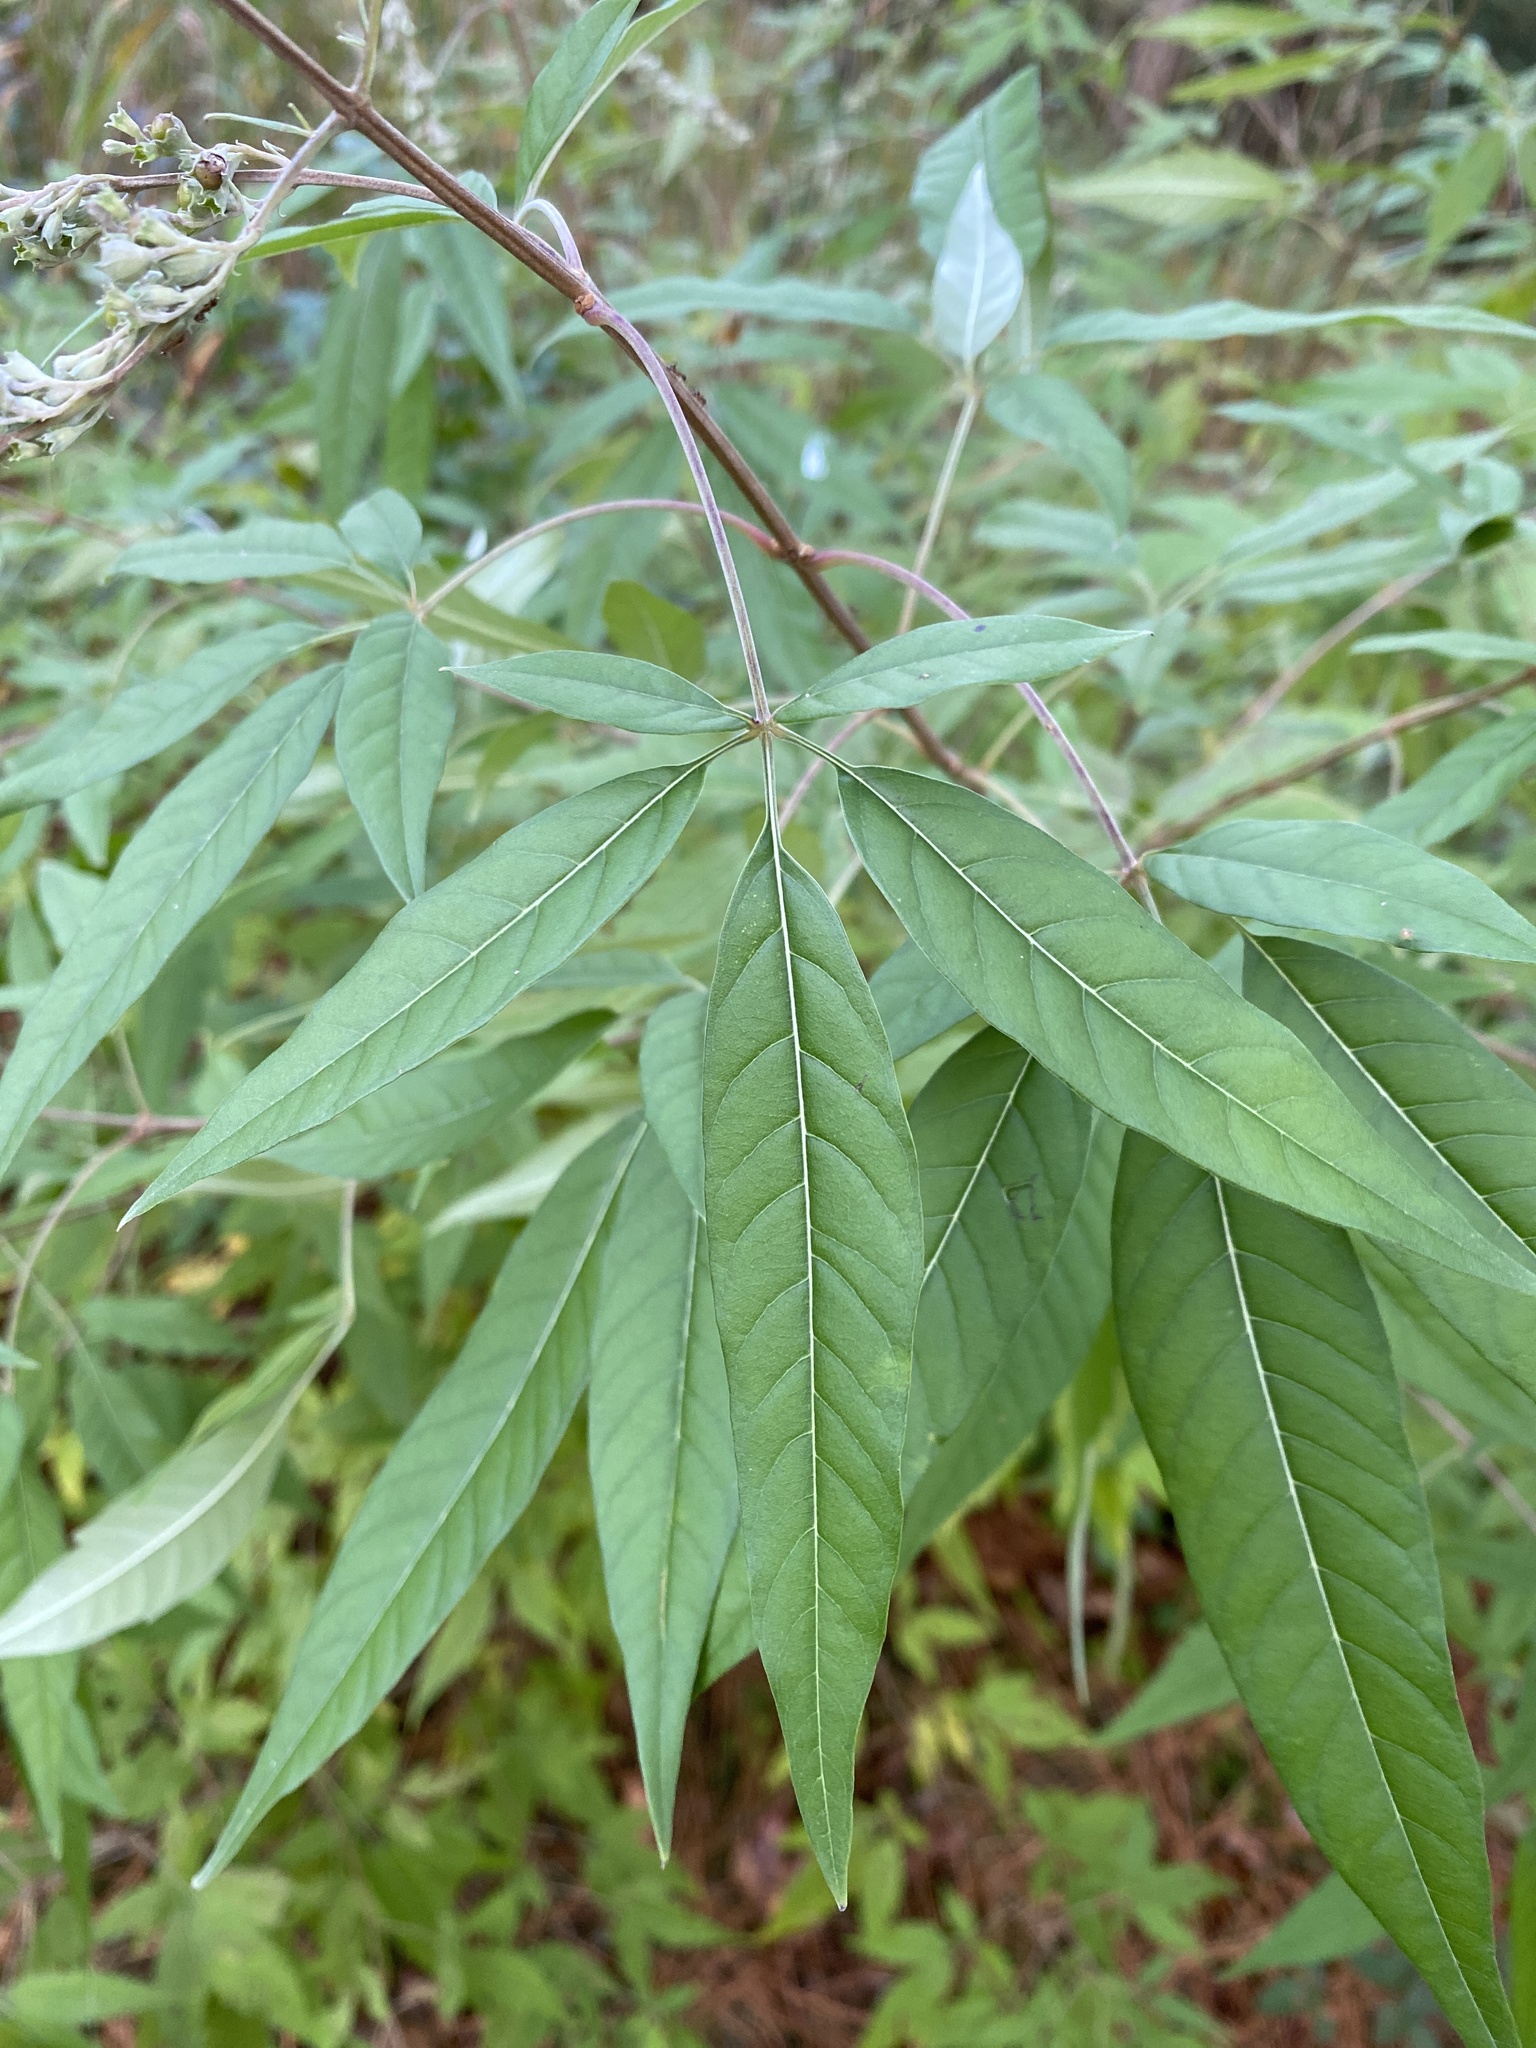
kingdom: Plantae
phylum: Tracheophyta
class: Magnoliopsida
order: Lamiales
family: Lamiaceae
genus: Vitex
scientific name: Vitex agnus-castus
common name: Chasteberry
